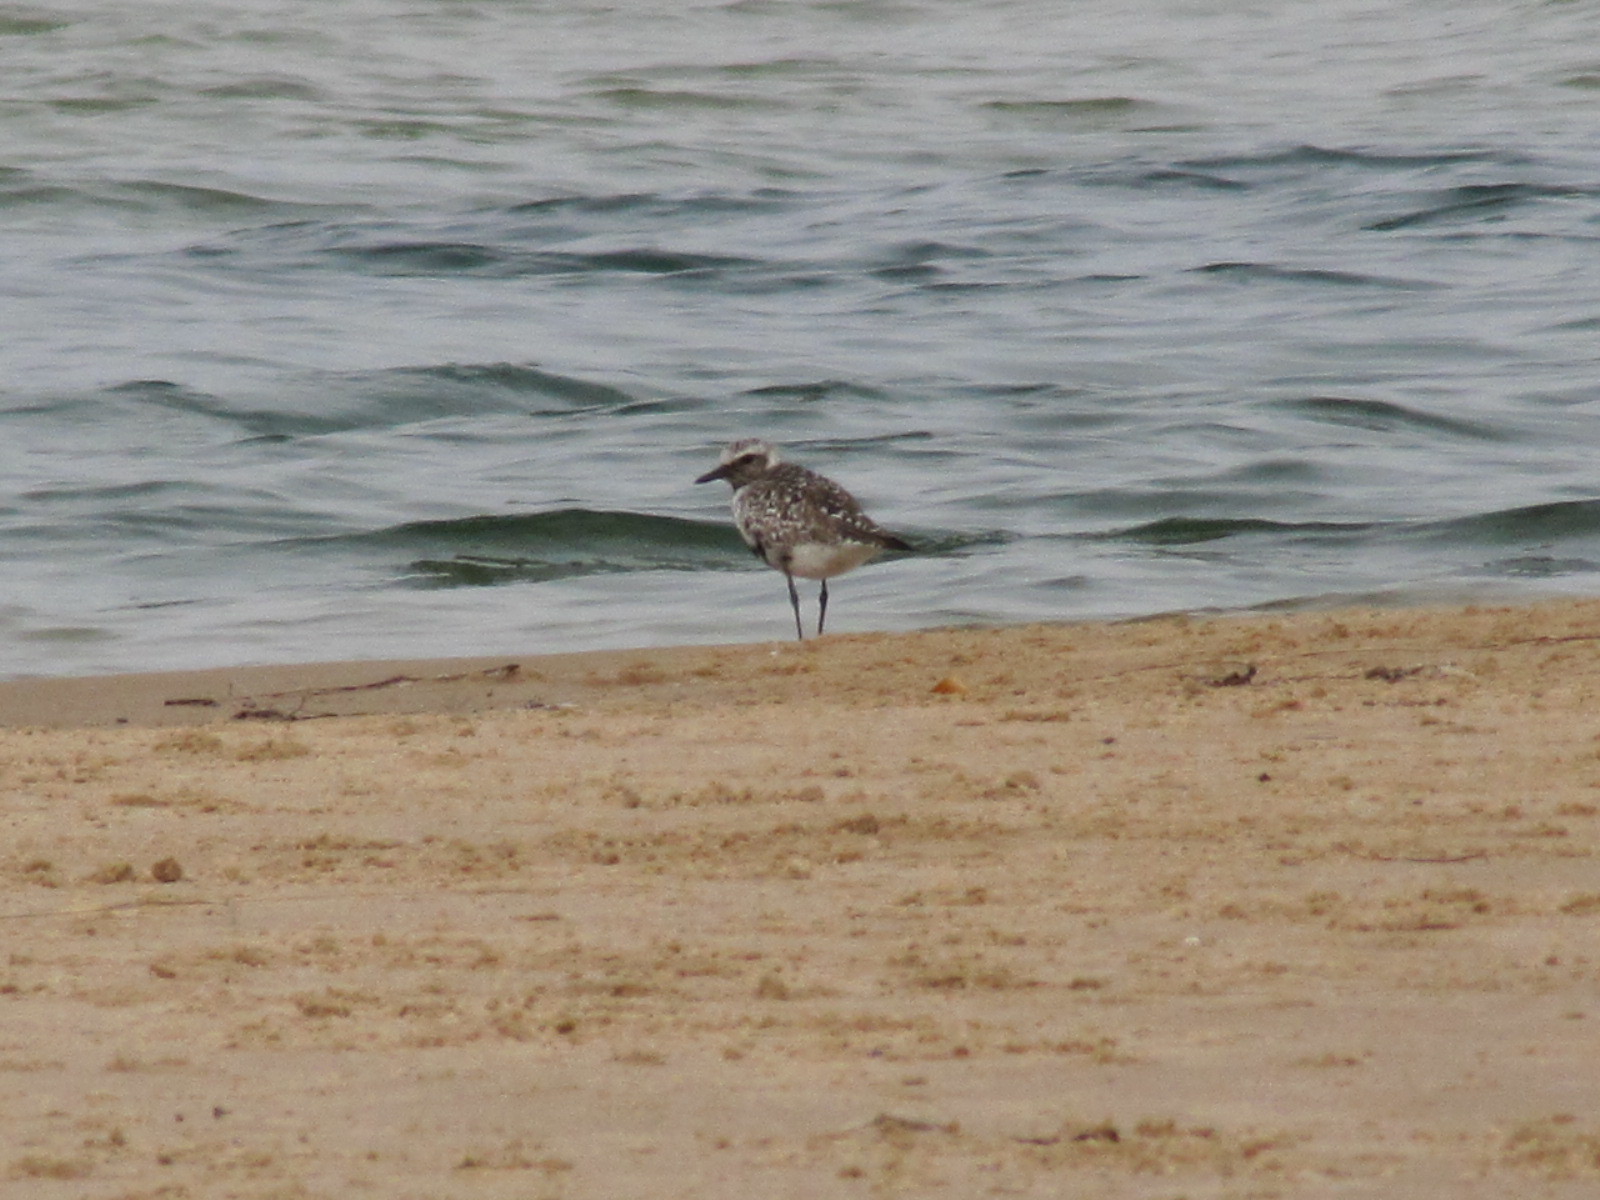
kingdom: Animalia
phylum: Chordata
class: Aves
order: Charadriiformes
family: Charadriidae
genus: Pluvialis
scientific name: Pluvialis squatarola
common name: Grey plover
